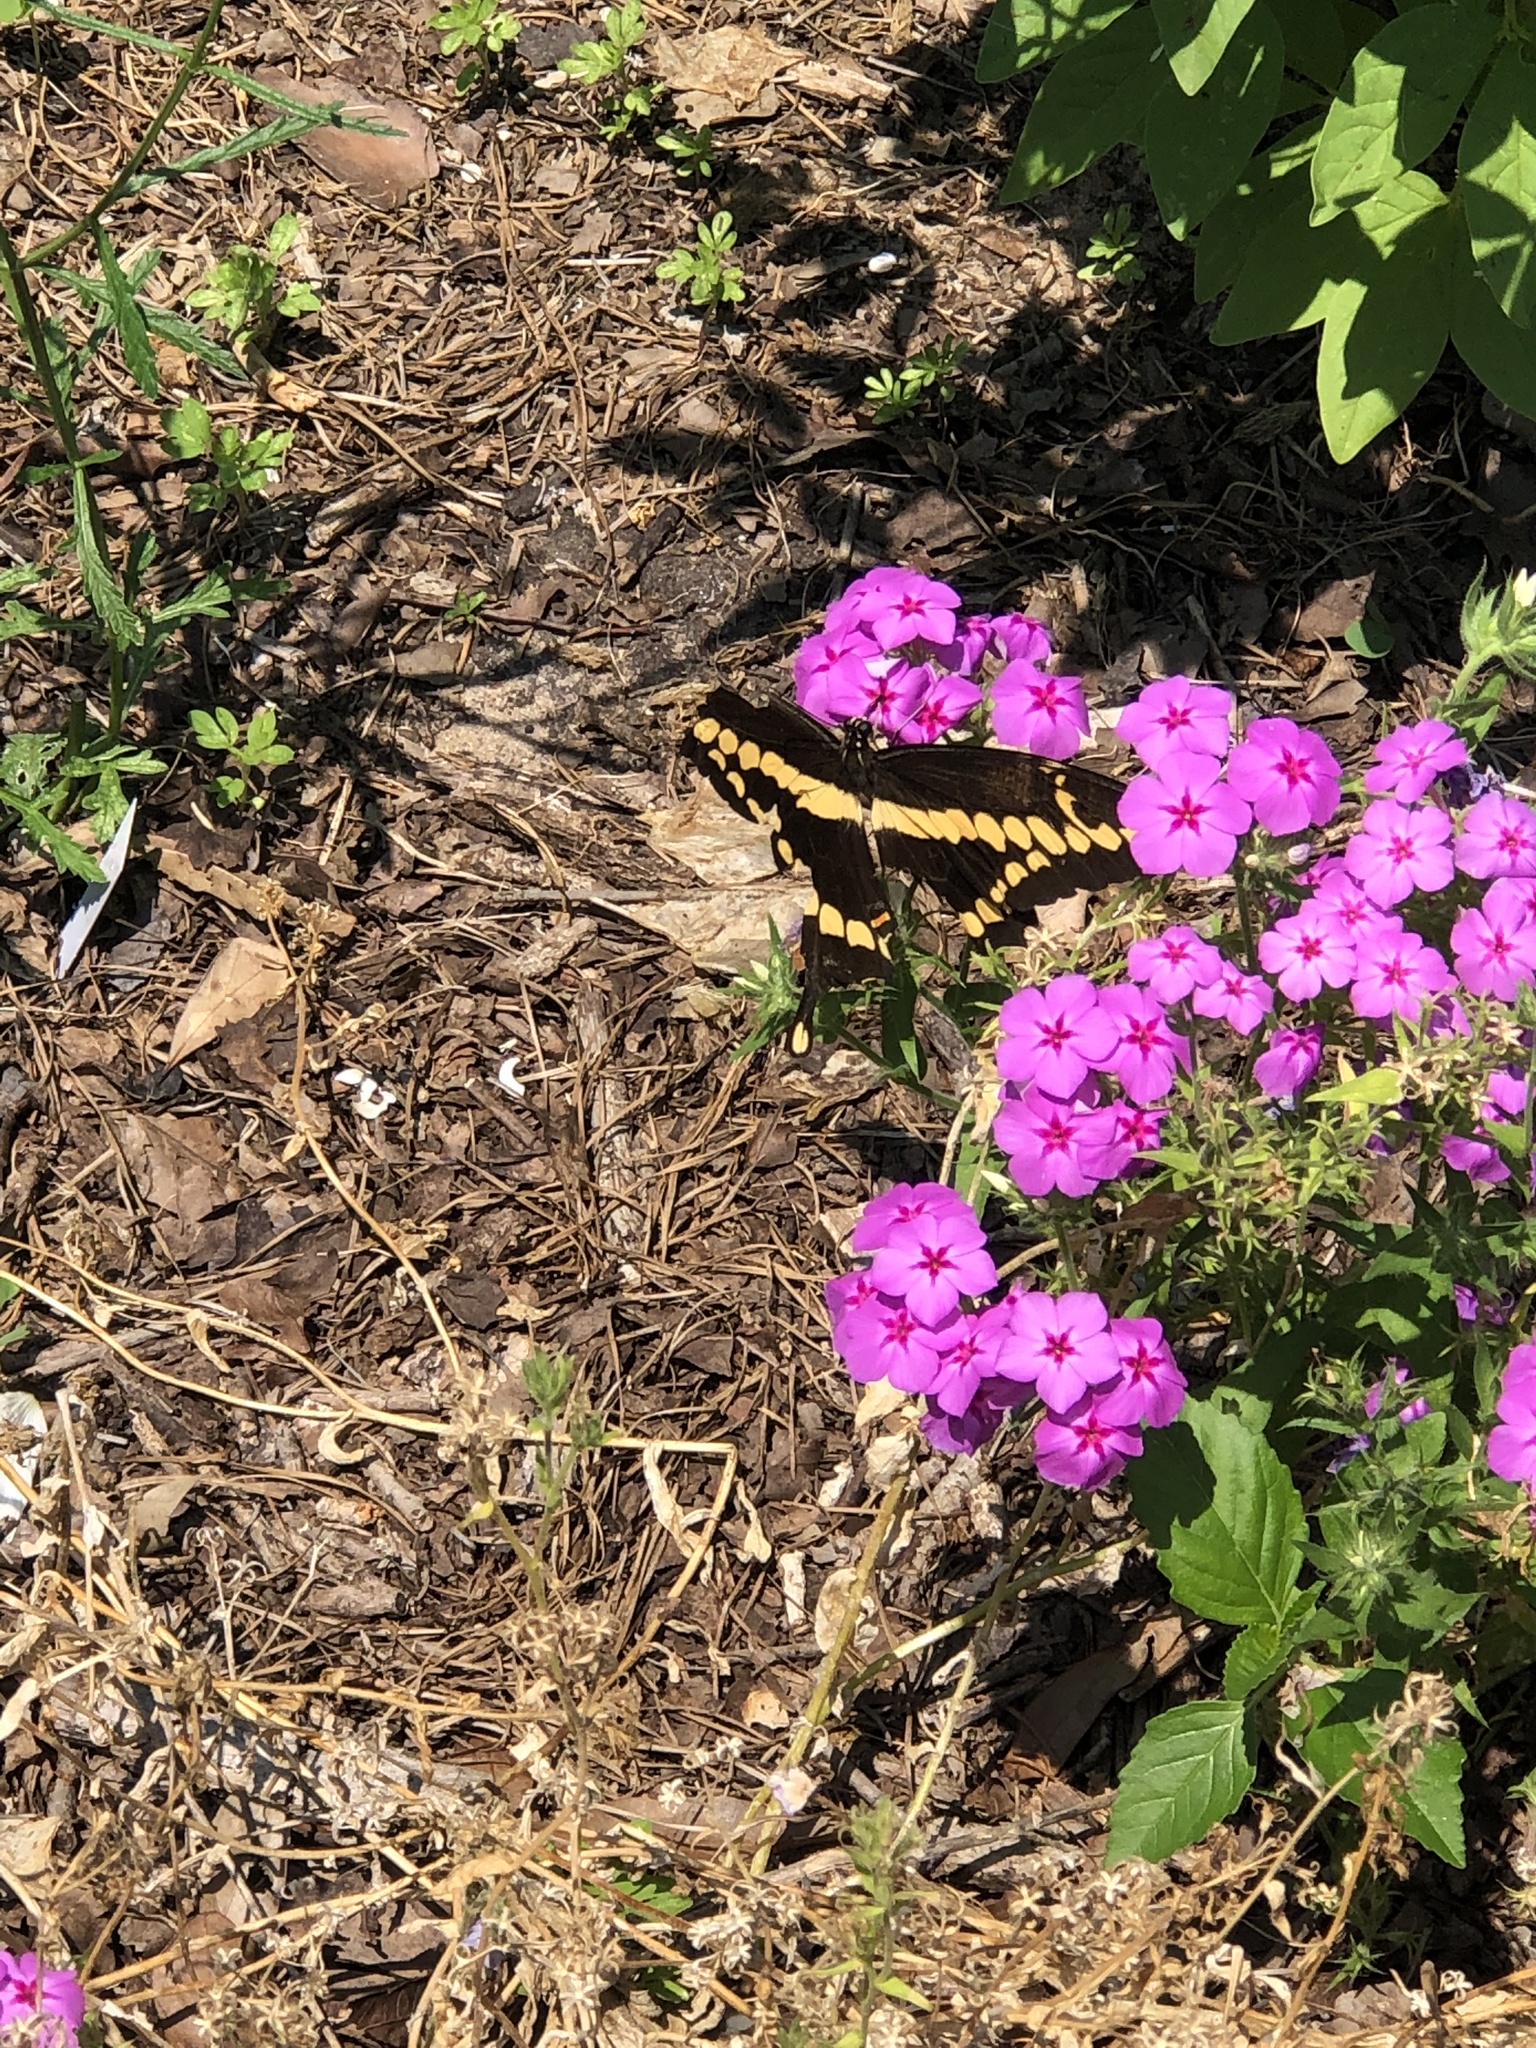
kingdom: Animalia
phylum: Arthropoda
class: Insecta
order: Lepidoptera
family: Papilionidae
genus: Papilio
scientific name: Papilio cresphontes
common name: Giant swallowtail
